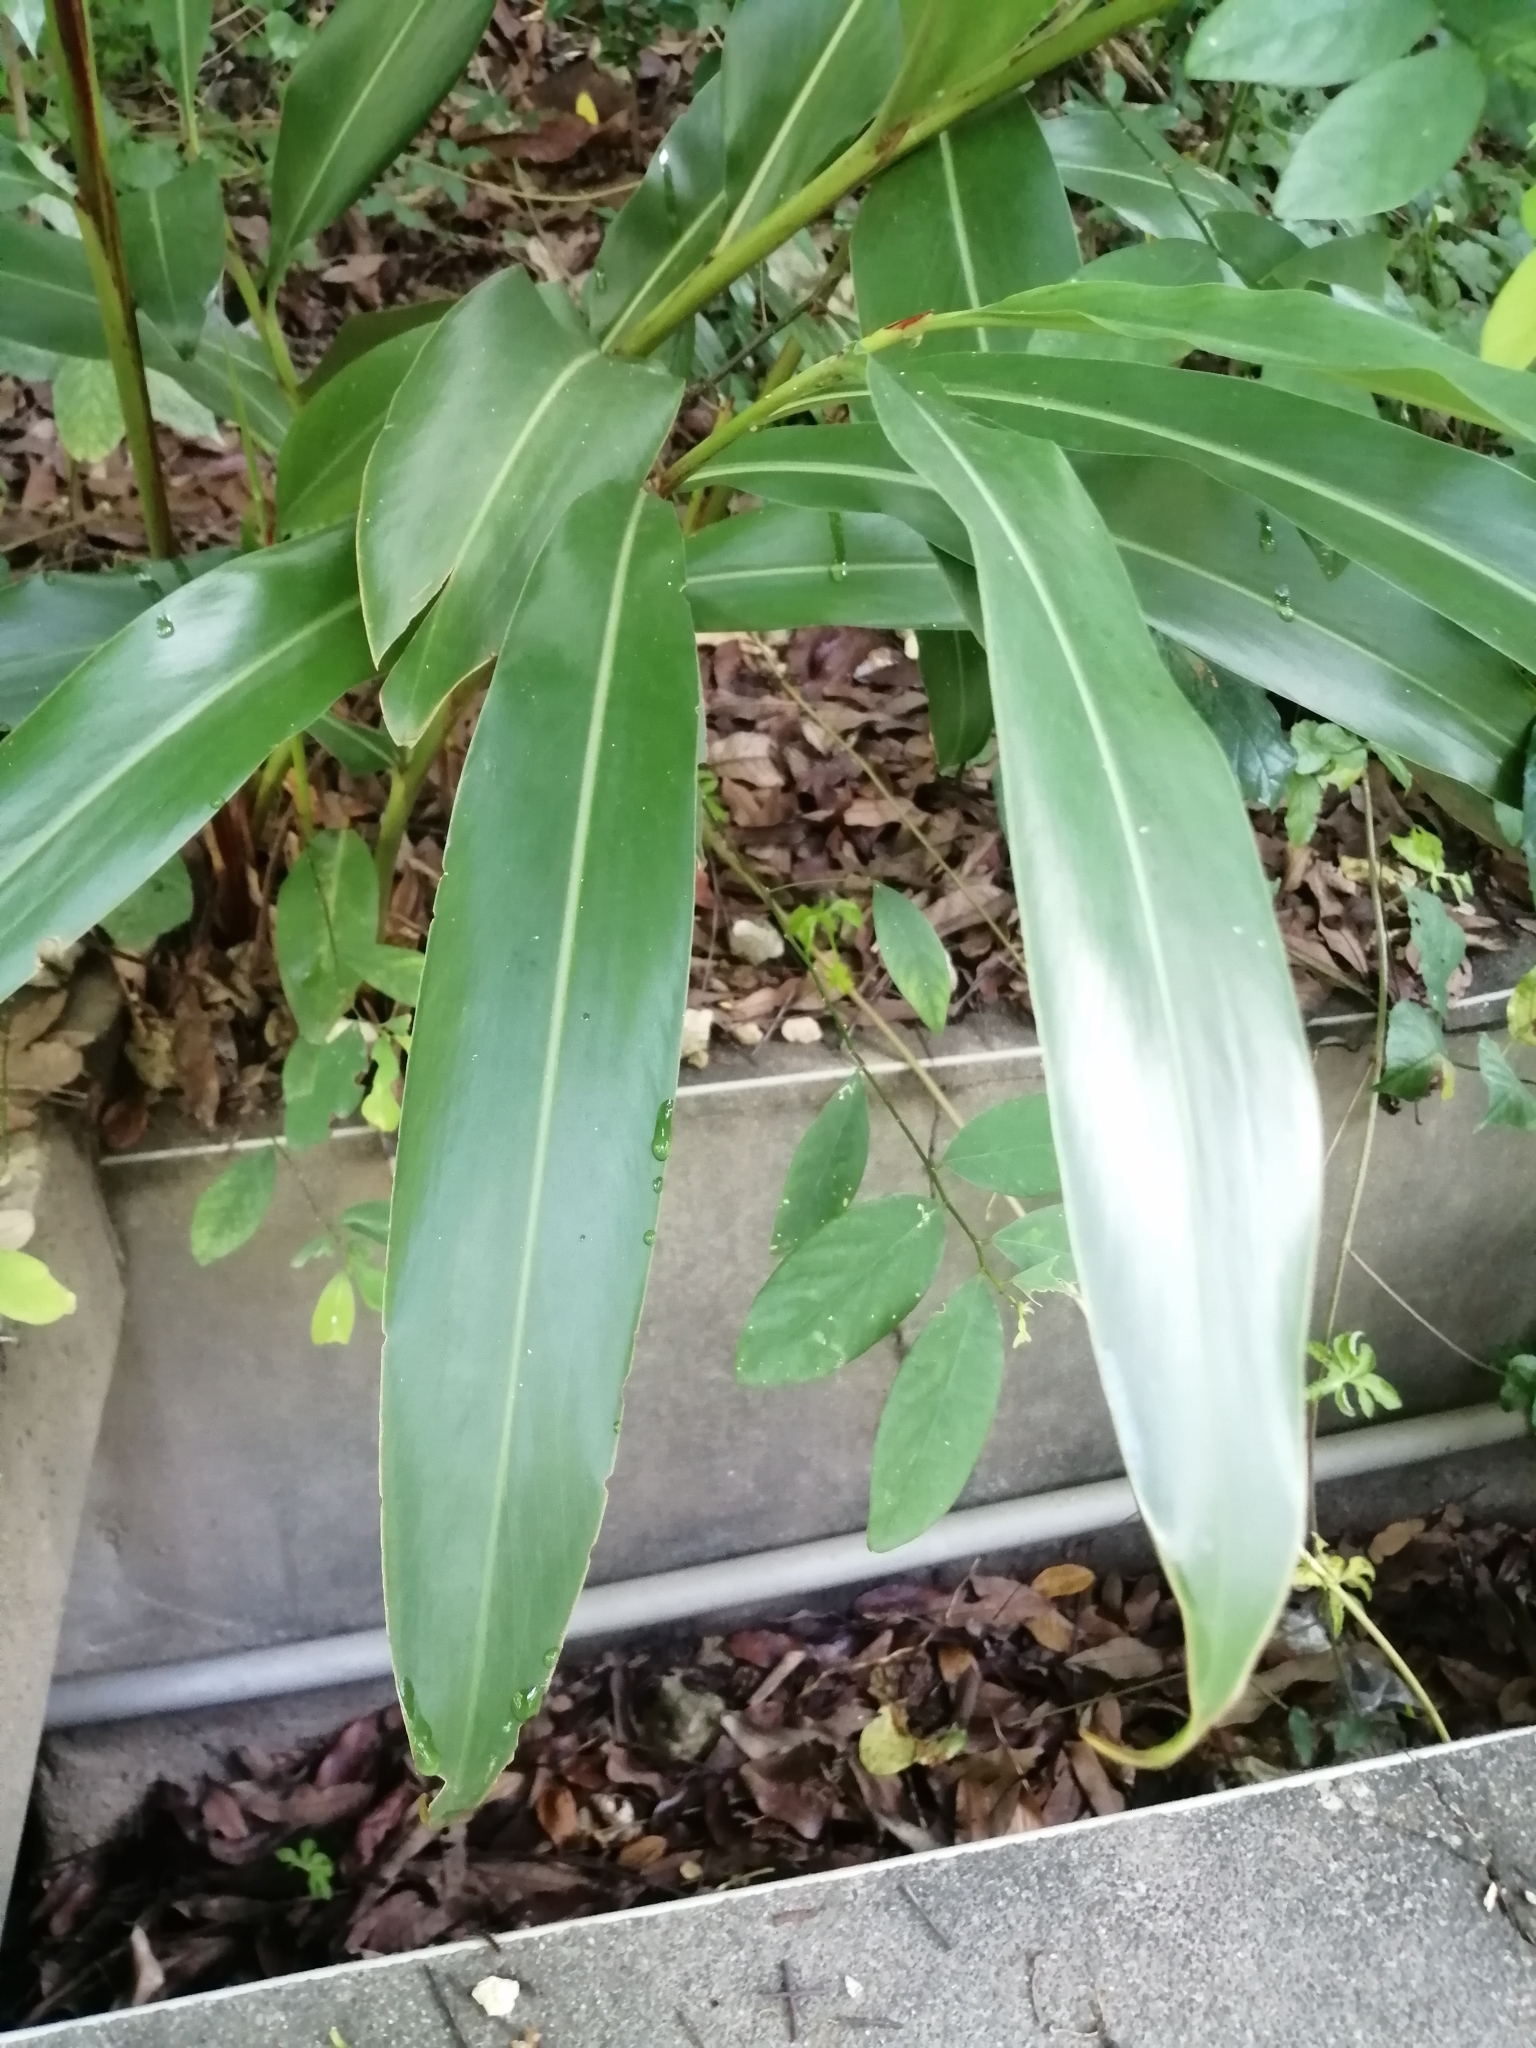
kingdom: Plantae
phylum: Tracheophyta
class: Liliopsida
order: Zingiberales
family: Zingiberaceae
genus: Alpinia
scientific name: Alpinia zerumbet
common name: Shellplant
